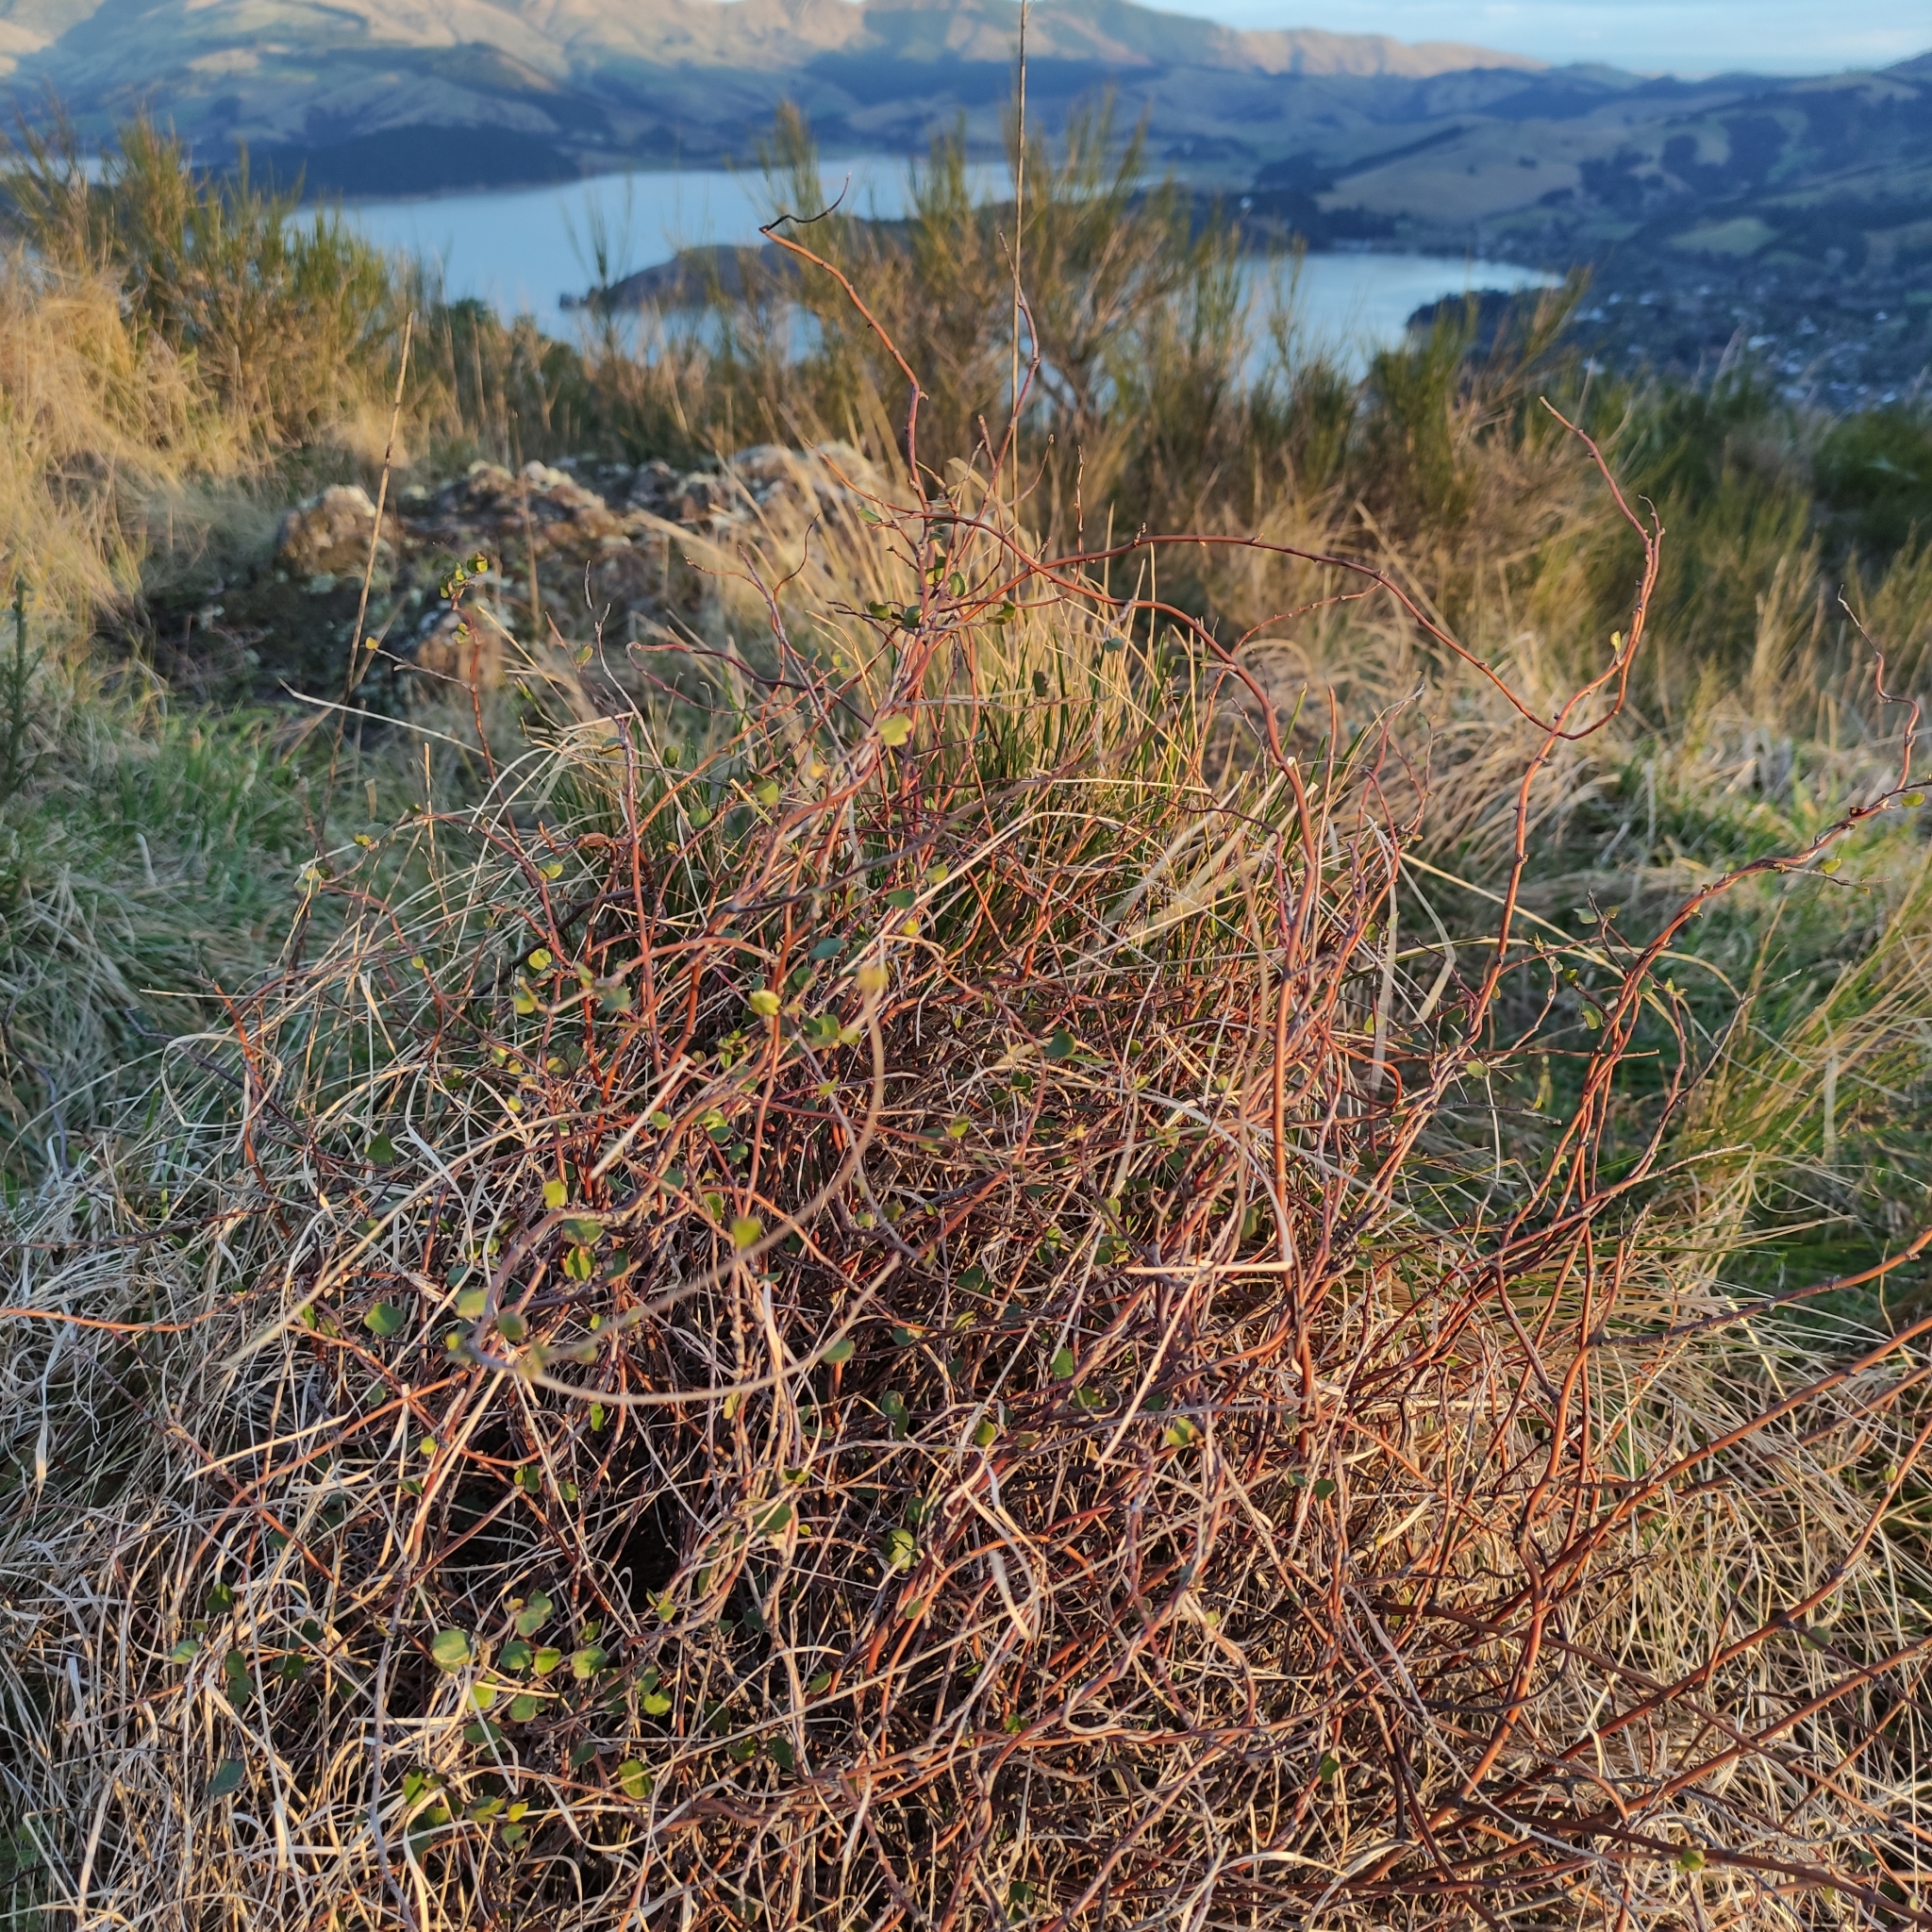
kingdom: Plantae
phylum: Tracheophyta
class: Magnoliopsida
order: Caryophyllales
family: Polygonaceae
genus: Muehlenbeckia
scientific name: Muehlenbeckia complexa
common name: Wireplant
